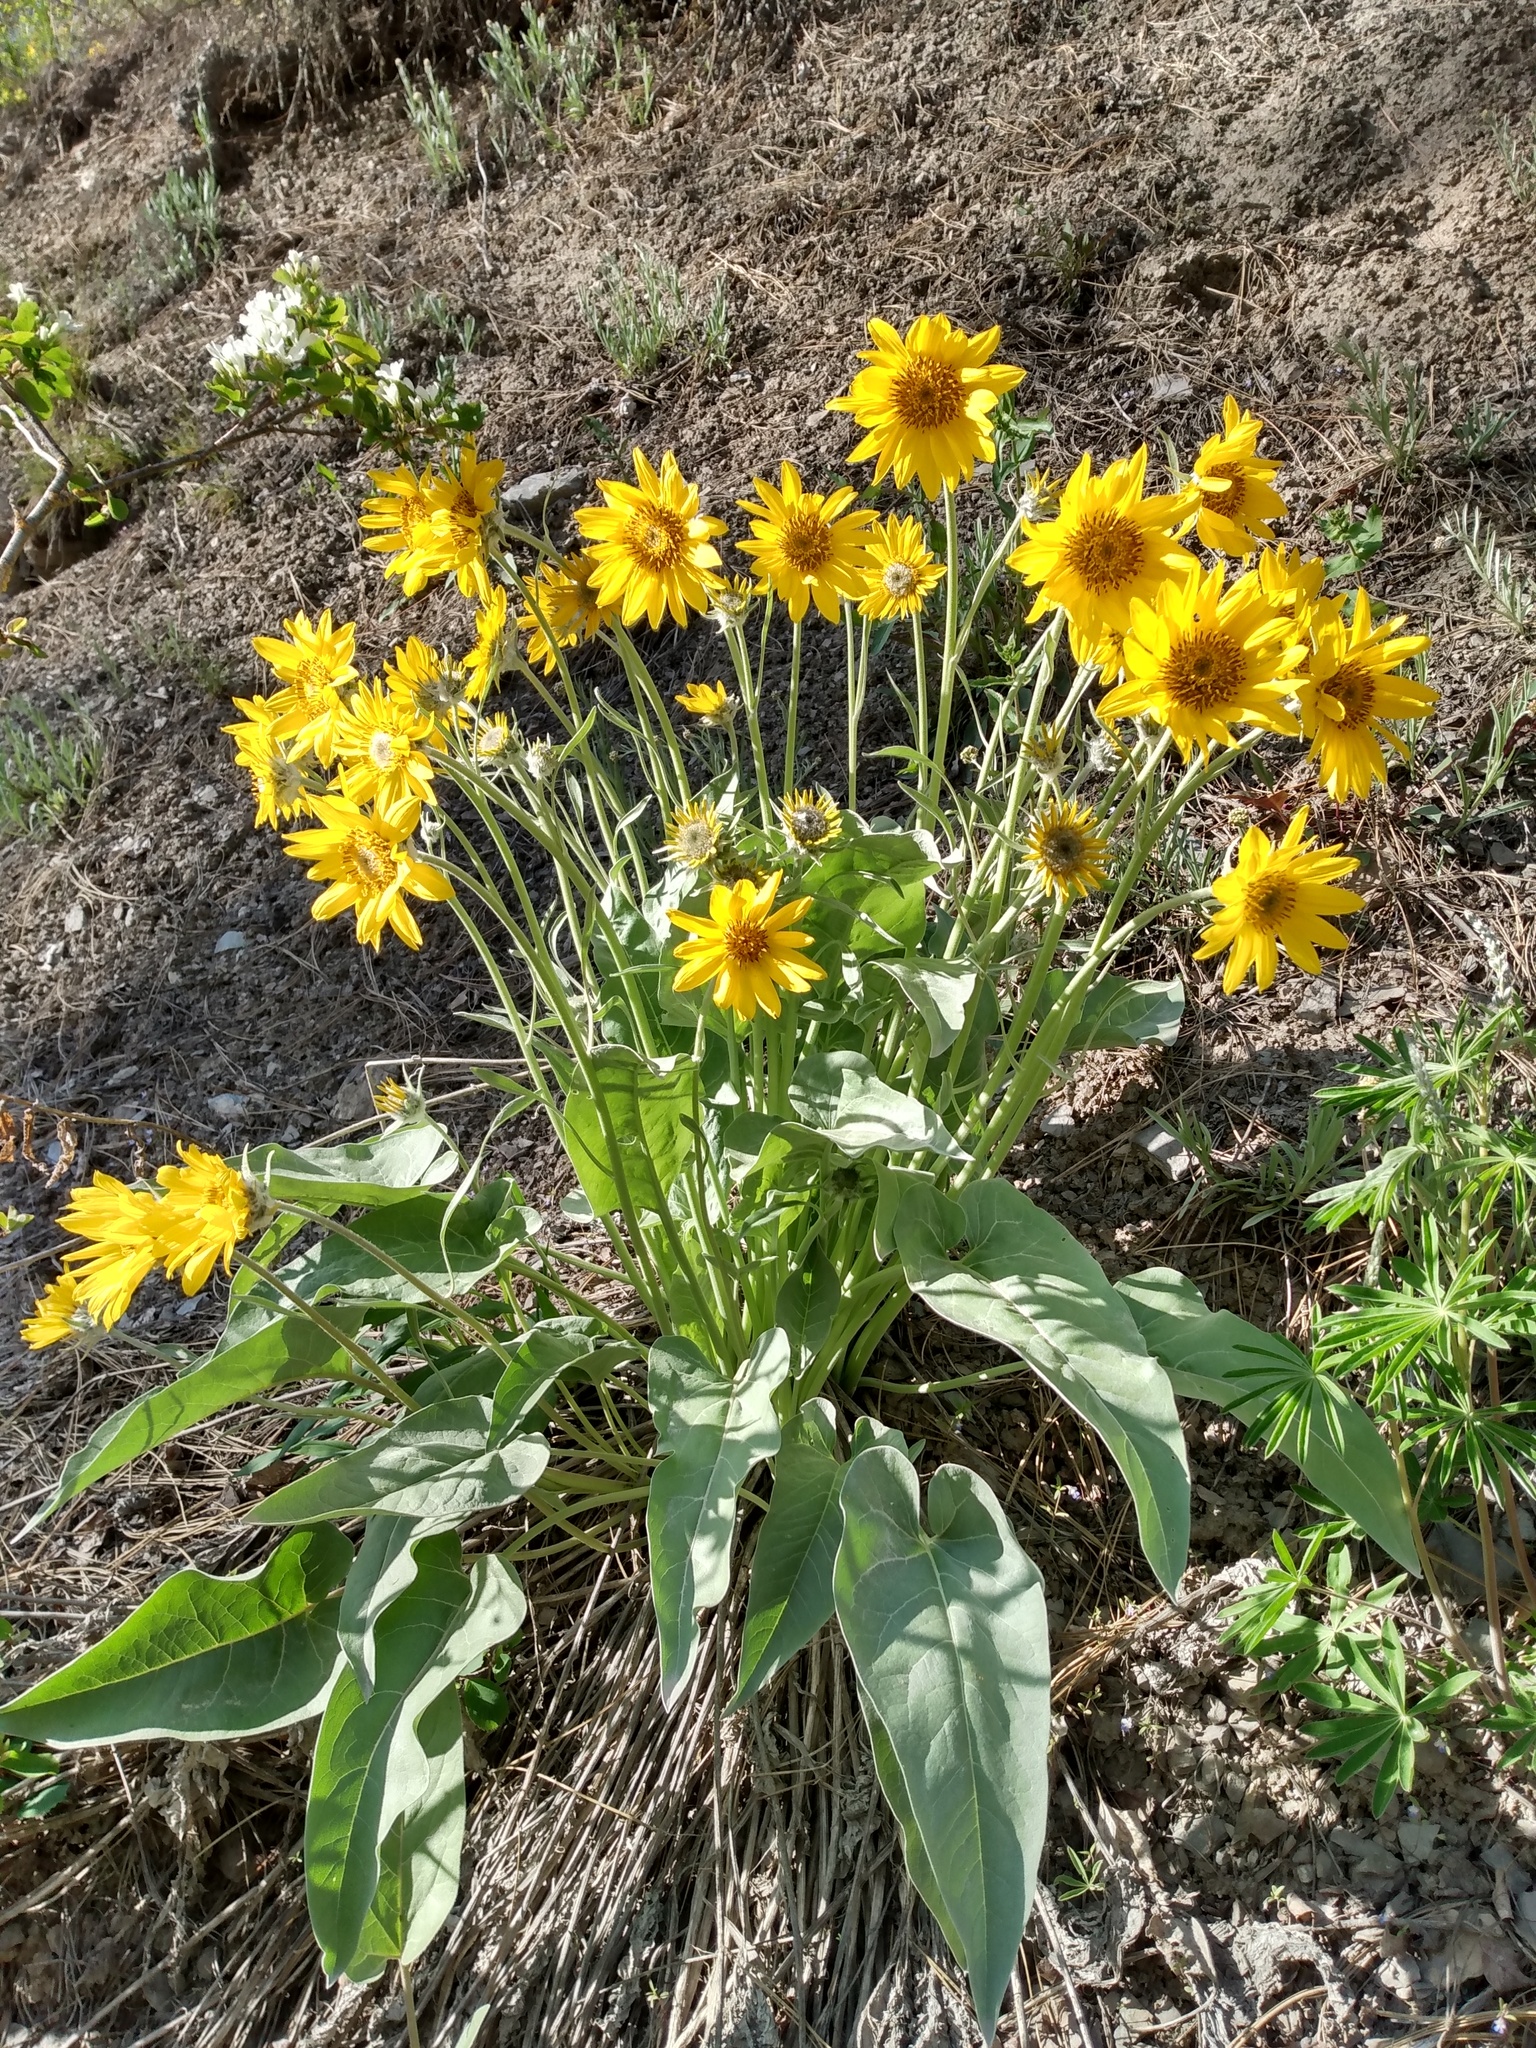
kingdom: Plantae
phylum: Tracheophyta
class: Magnoliopsida
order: Asterales
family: Asteraceae
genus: Wyethia
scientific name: Wyethia sagittata
